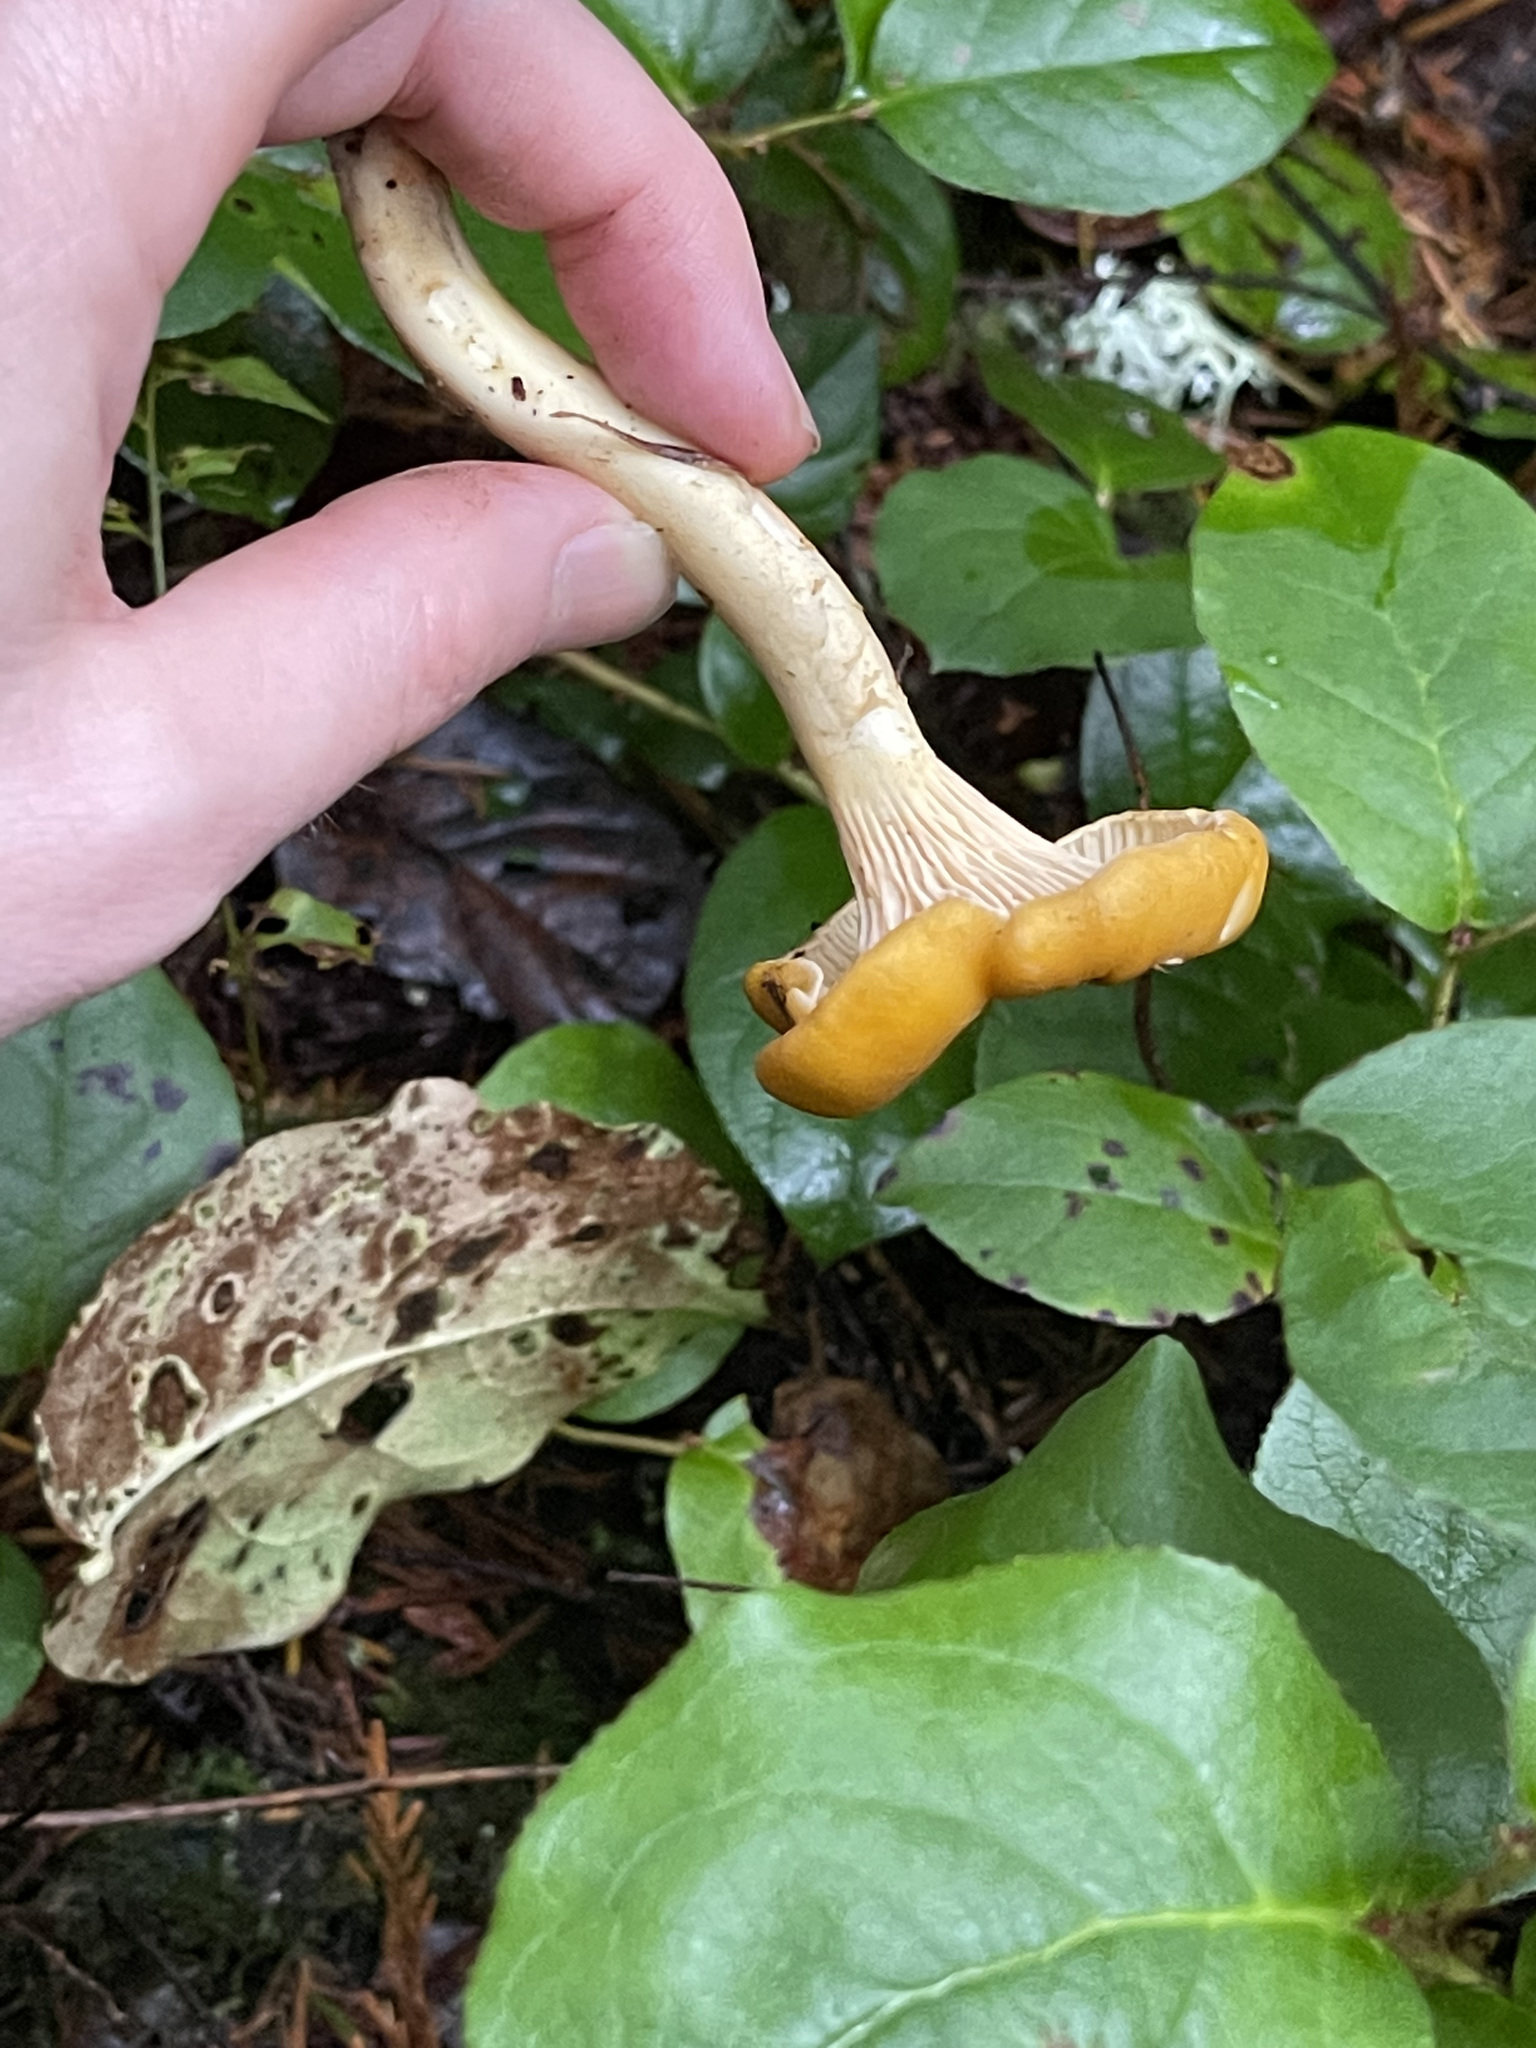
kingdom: Fungi
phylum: Basidiomycota
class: Agaricomycetes
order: Cantharellales
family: Hydnaceae
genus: Cantharellus
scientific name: Cantharellus formosus
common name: Pacific golden chanterelle
